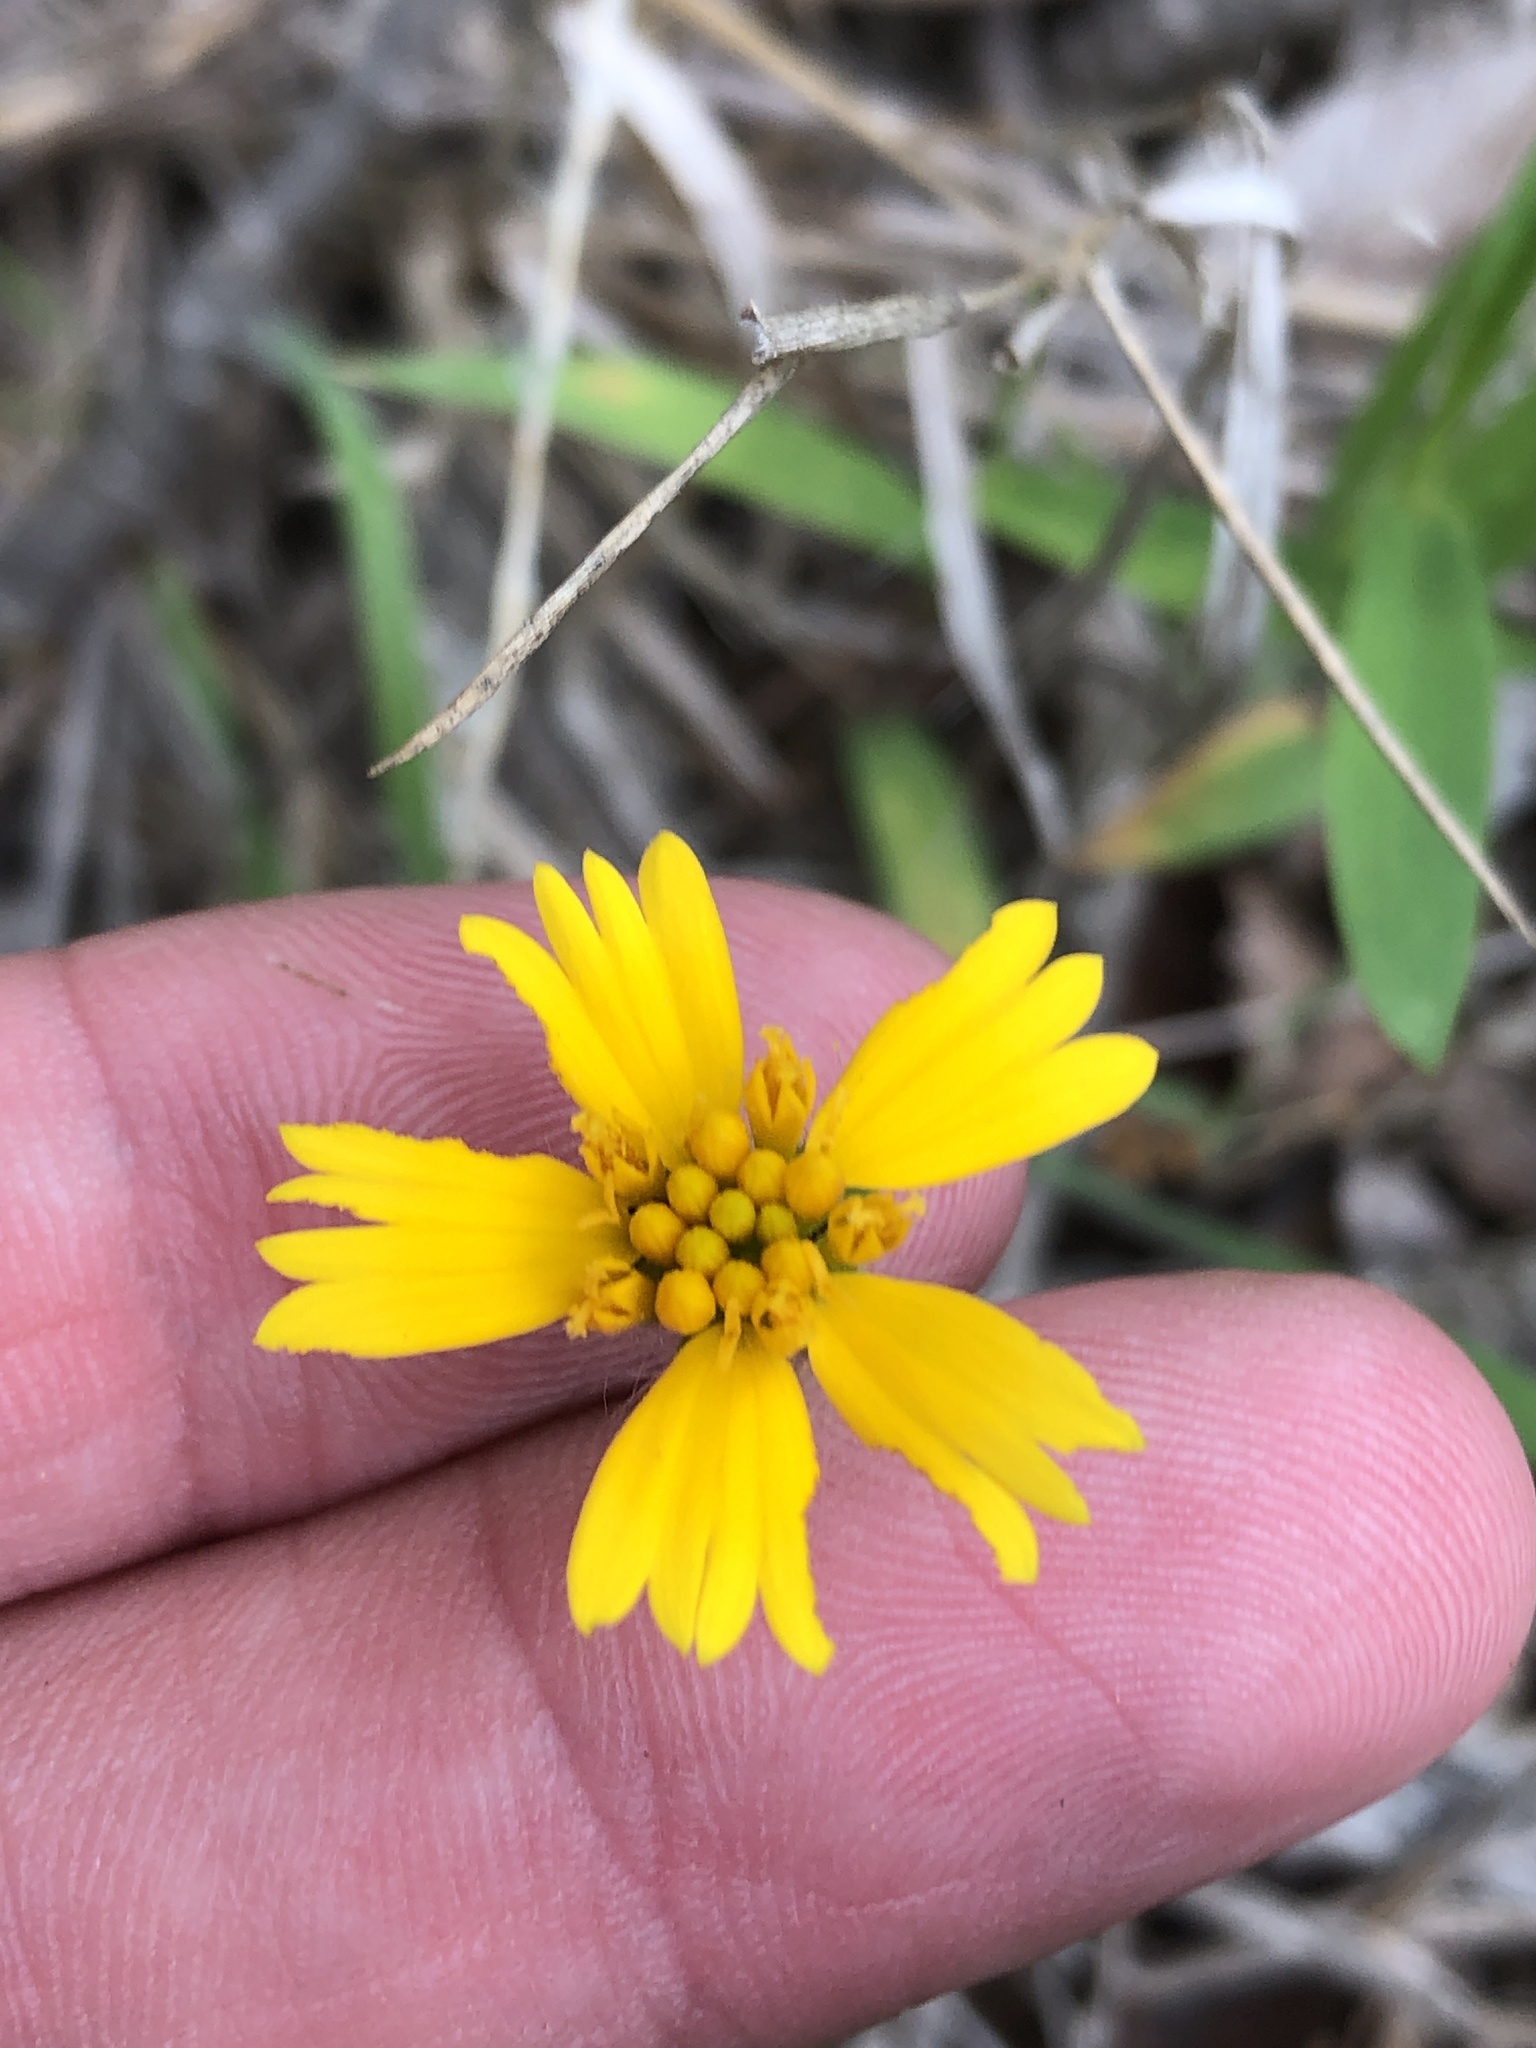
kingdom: Plantae
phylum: Tracheophyta
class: Magnoliopsida
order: Asterales
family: Asteraceae
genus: Amblyolepis
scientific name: Amblyolepis setigera
